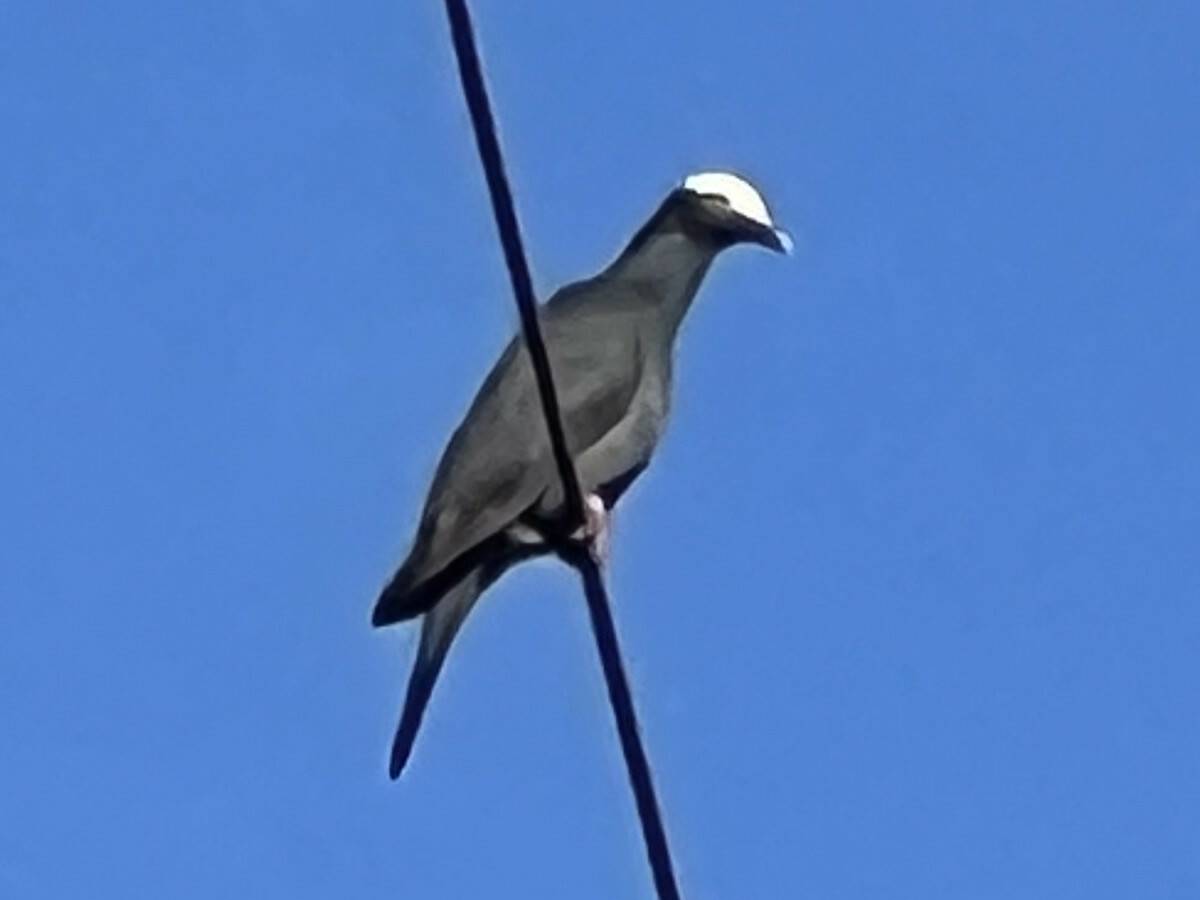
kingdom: Animalia
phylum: Chordata
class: Aves
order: Columbiformes
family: Columbidae
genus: Patagioenas
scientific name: Patagioenas leucocephala
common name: White-crowned pigeon
